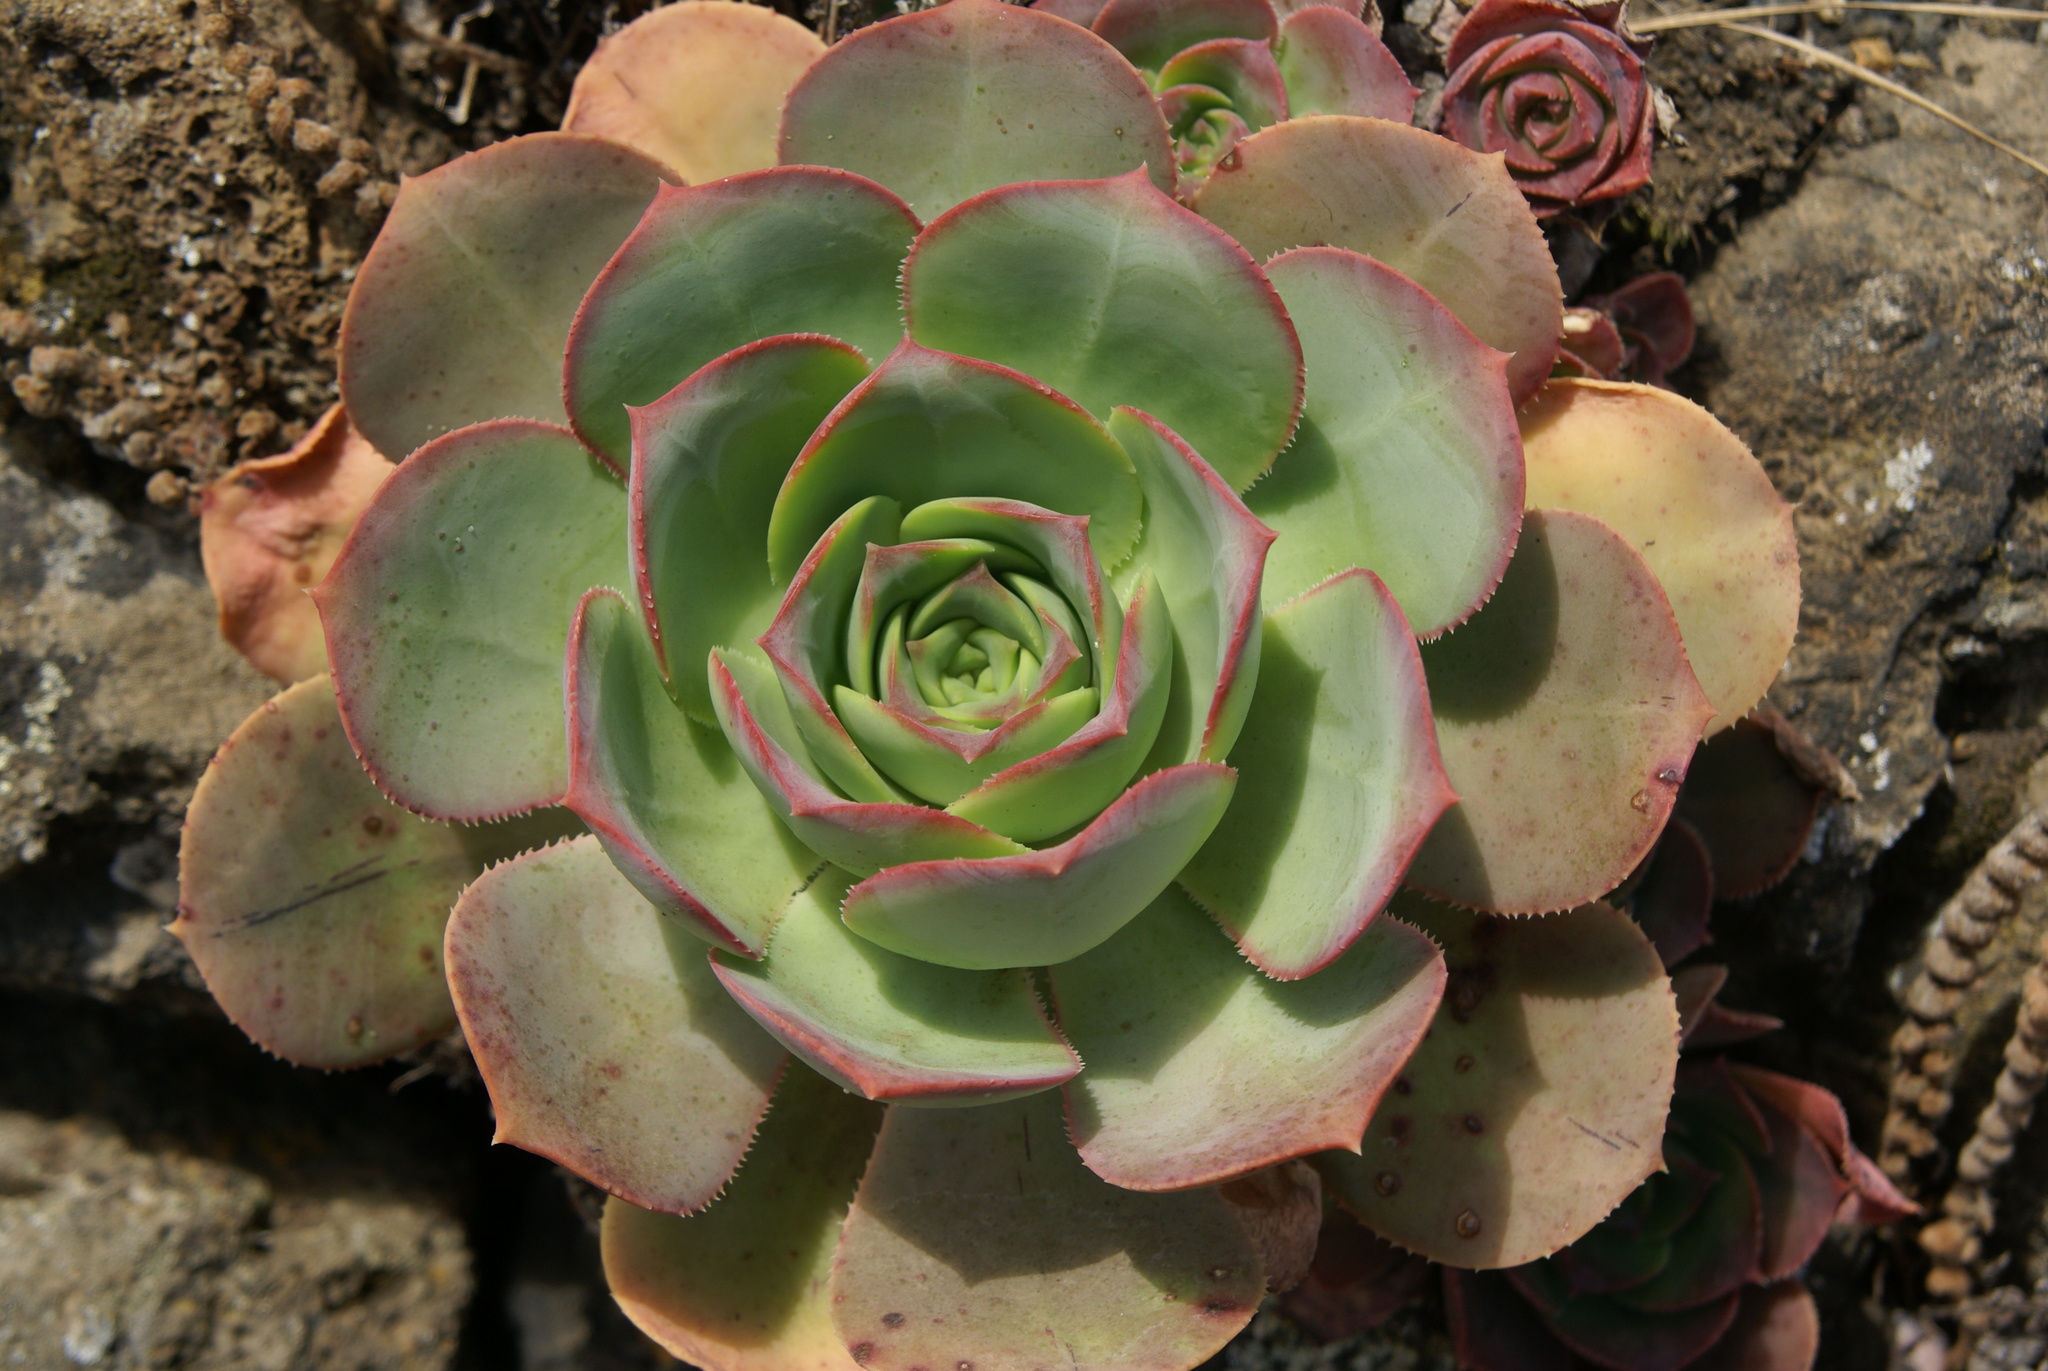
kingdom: Plantae
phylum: Tracheophyta
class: Magnoliopsida
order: Saxifragales
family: Crassulaceae
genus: Aeonium
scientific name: Aeonium hierrense
